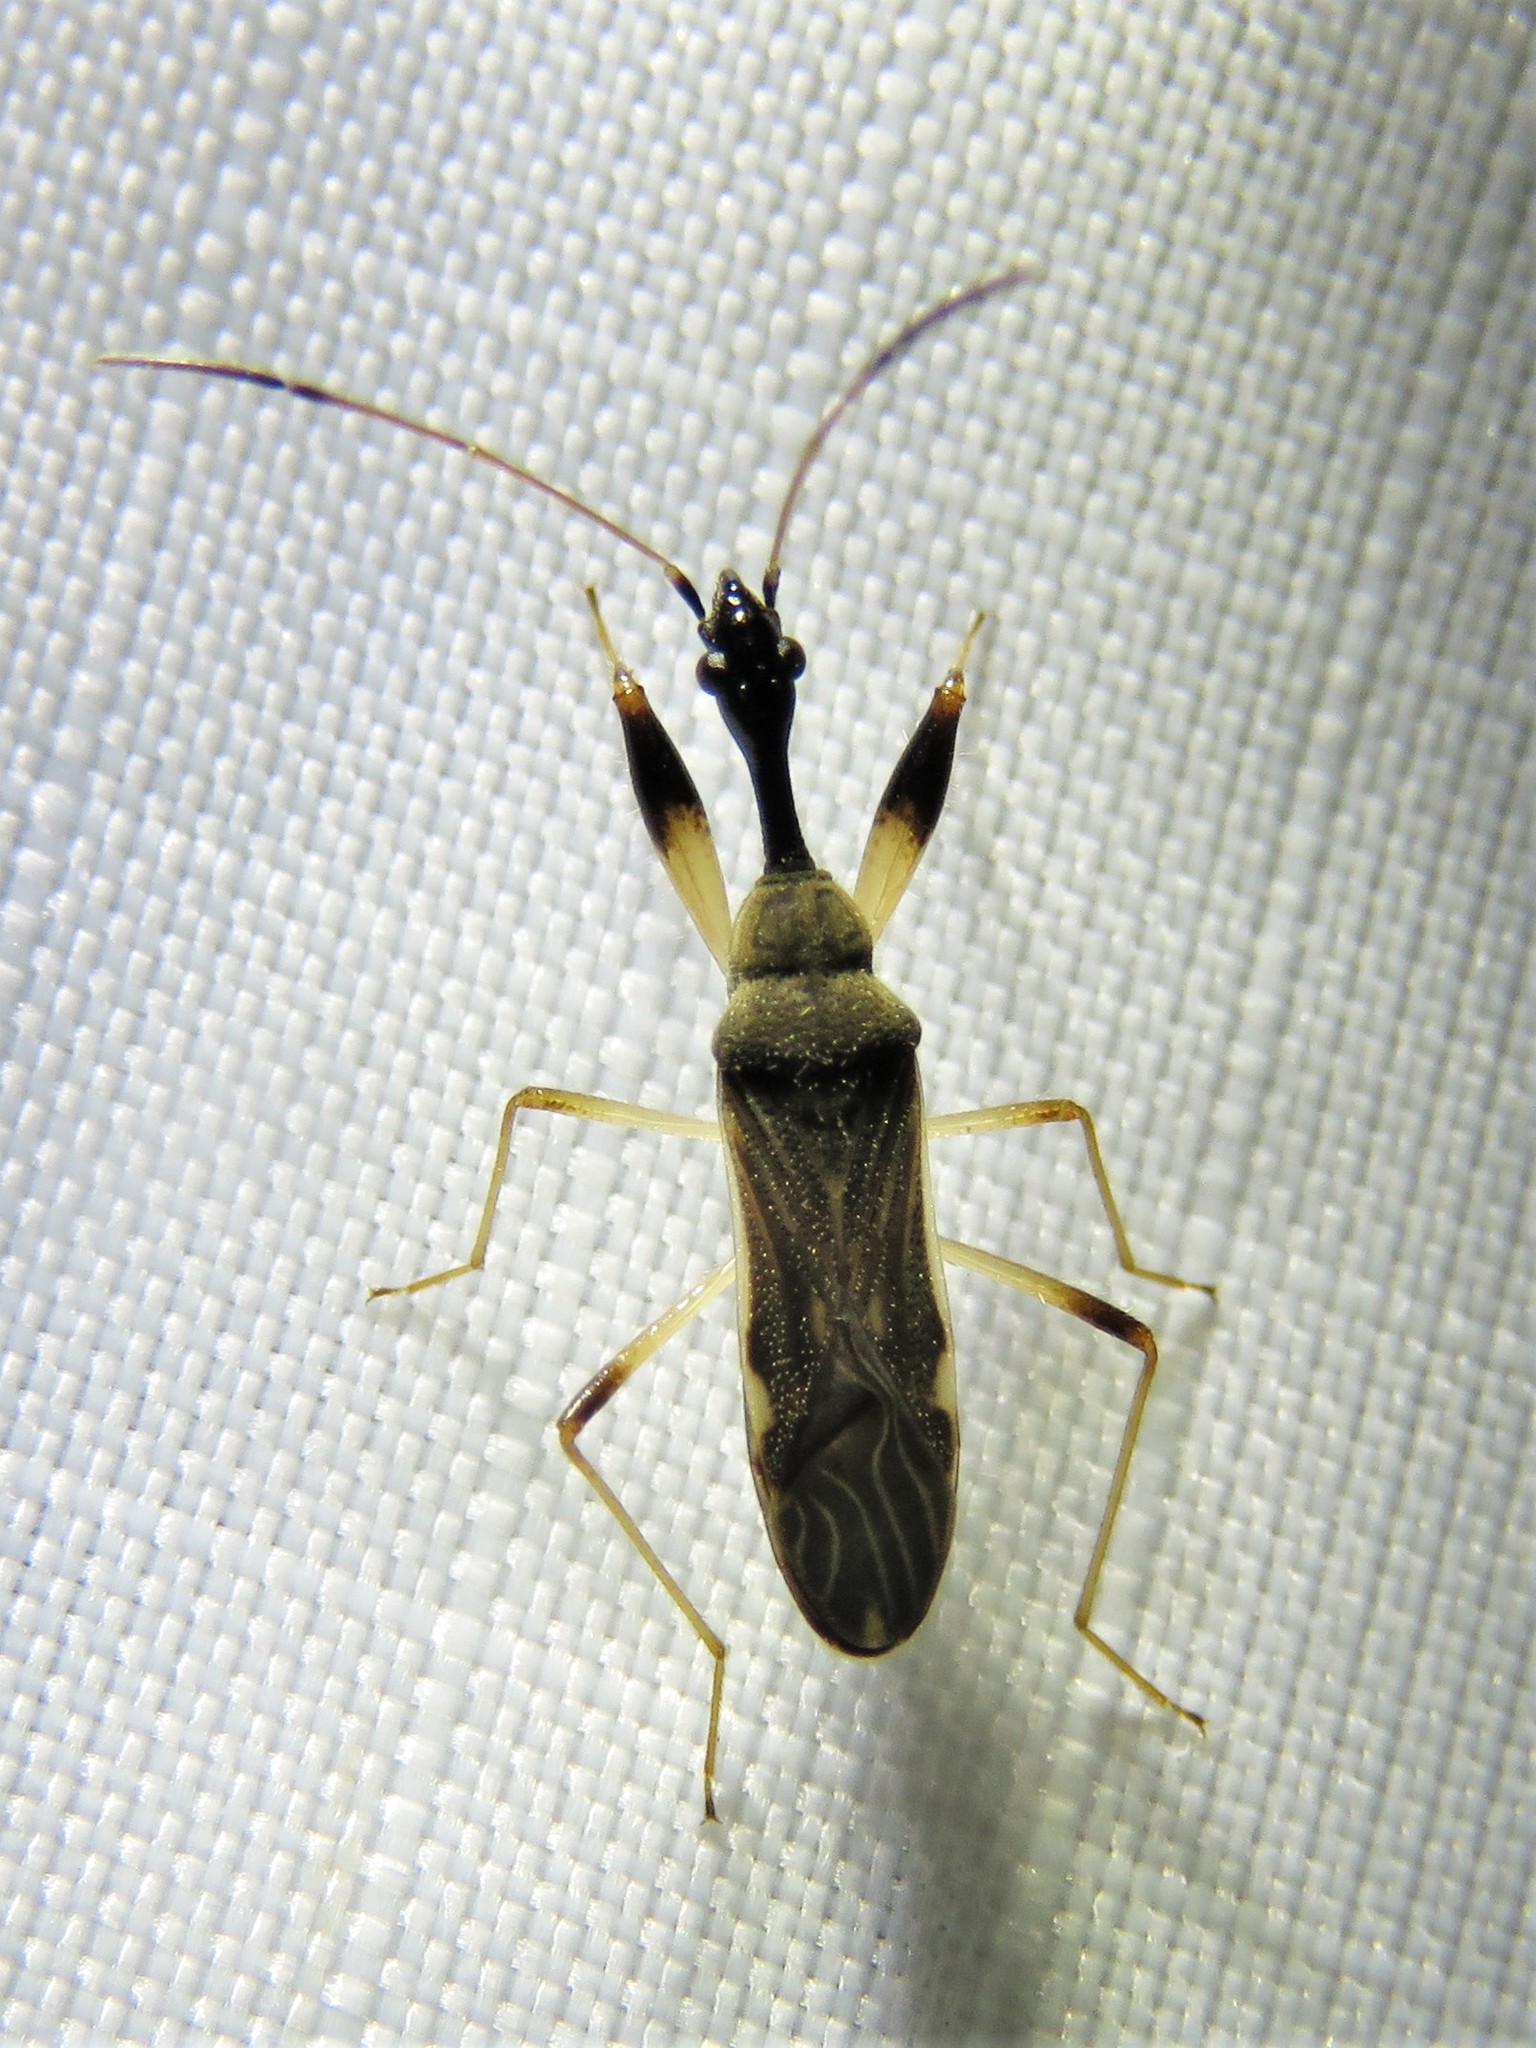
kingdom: Animalia
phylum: Arthropoda
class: Insecta
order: Hemiptera
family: Rhyparochromidae
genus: Myodocha
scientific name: Myodocha serripes
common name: Long-necked seed bug
